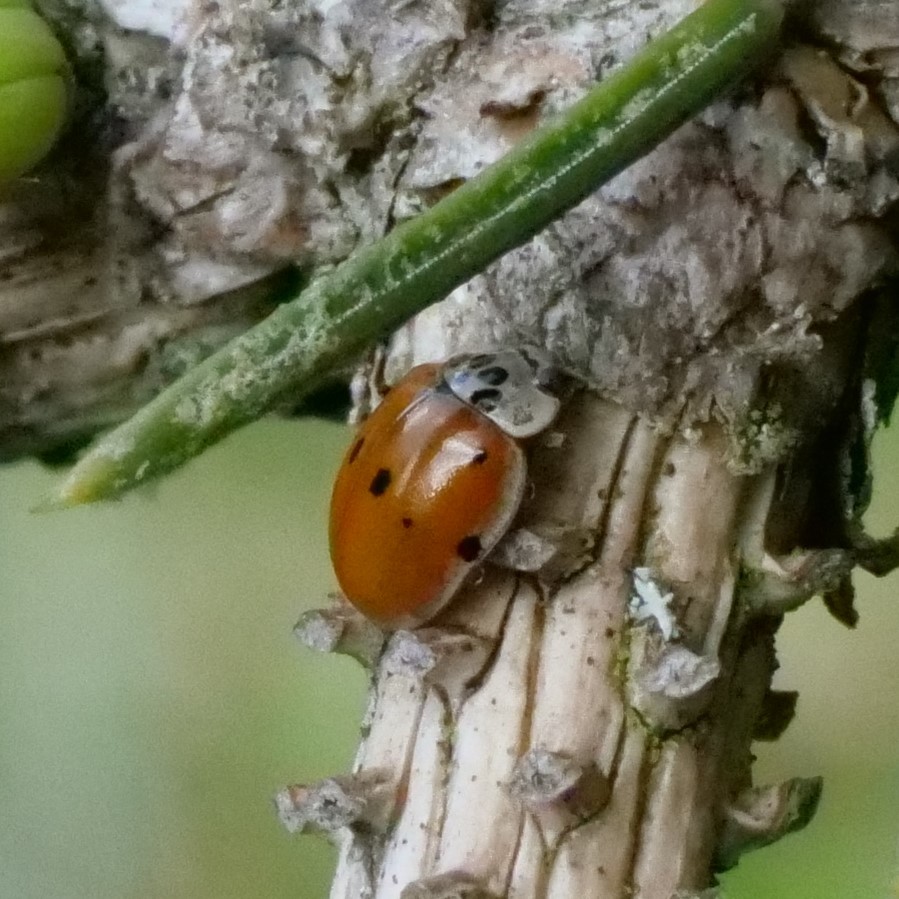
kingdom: Animalia
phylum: Arthropoda
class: Insecta
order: Coleoptera
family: Coccinellidae
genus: Adalia
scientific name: Adalia decempunctata
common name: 10-spot ladybird
